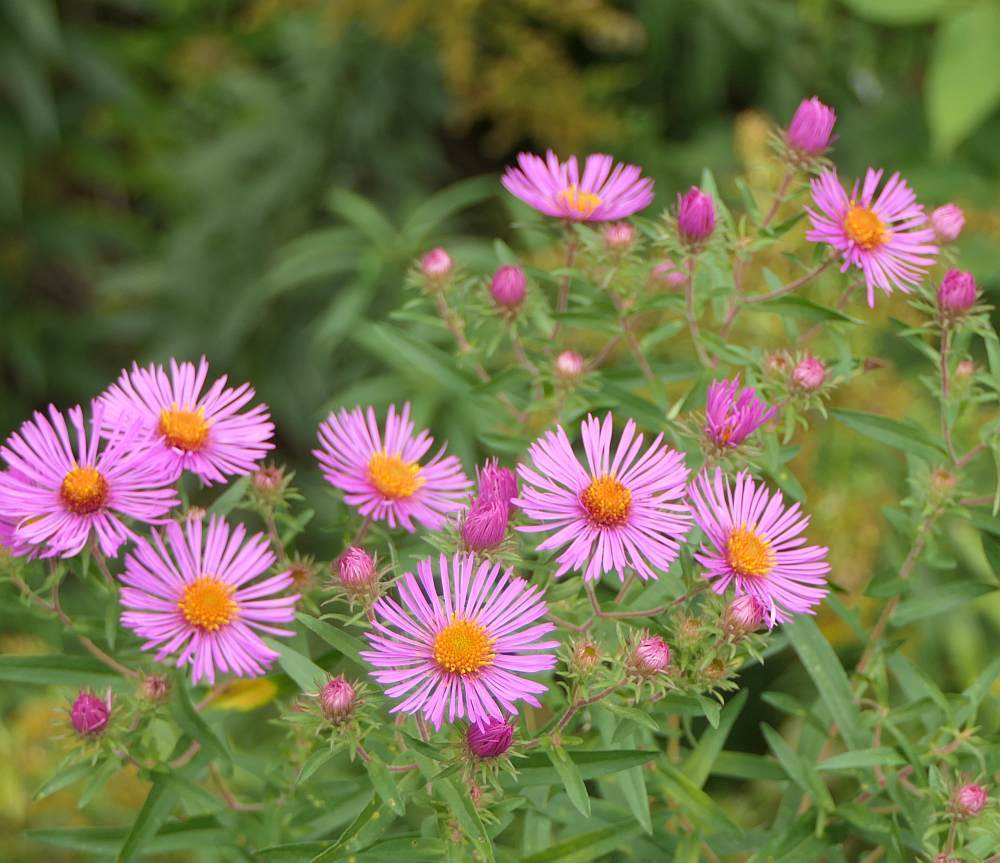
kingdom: Plantae
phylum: Tracheophyta
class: Magnoliopsida
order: Asterales
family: Asteraceae
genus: Symphyotrichum
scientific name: Symphyotrichum novae-angliae
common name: Michaelmas daisy
